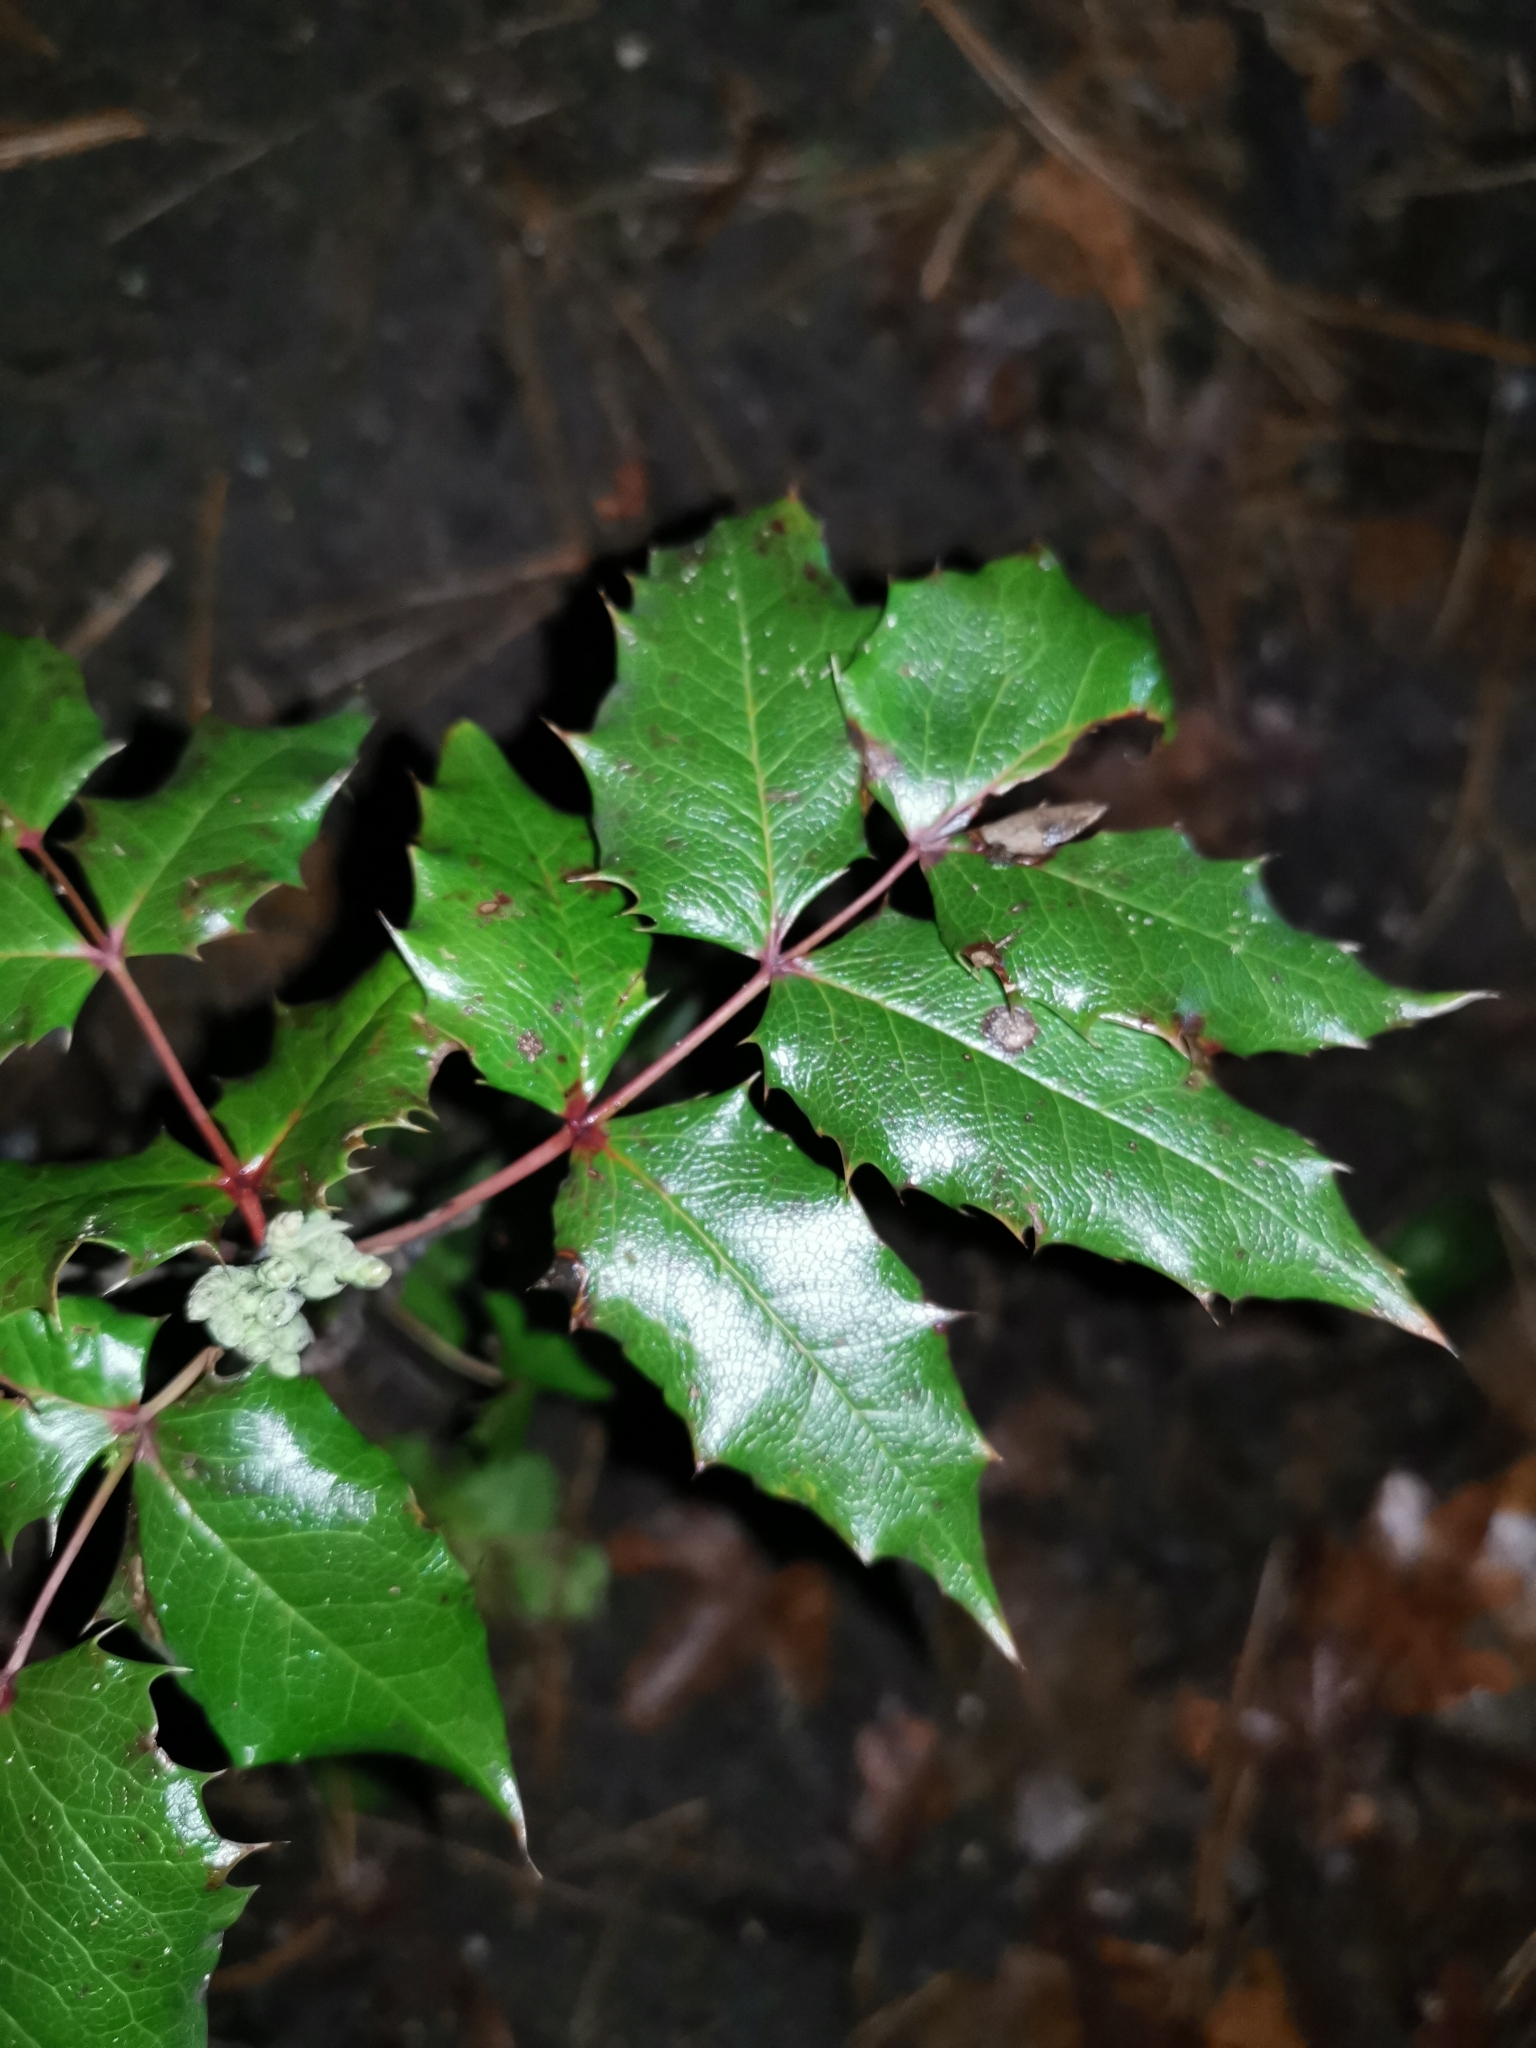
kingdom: Plantae
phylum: Tracheophyta
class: Magnoliopsida
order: Ranunculales
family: Berberidaceae
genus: Mahonia
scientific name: Mahonia aquifolium
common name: Oregon-grape
